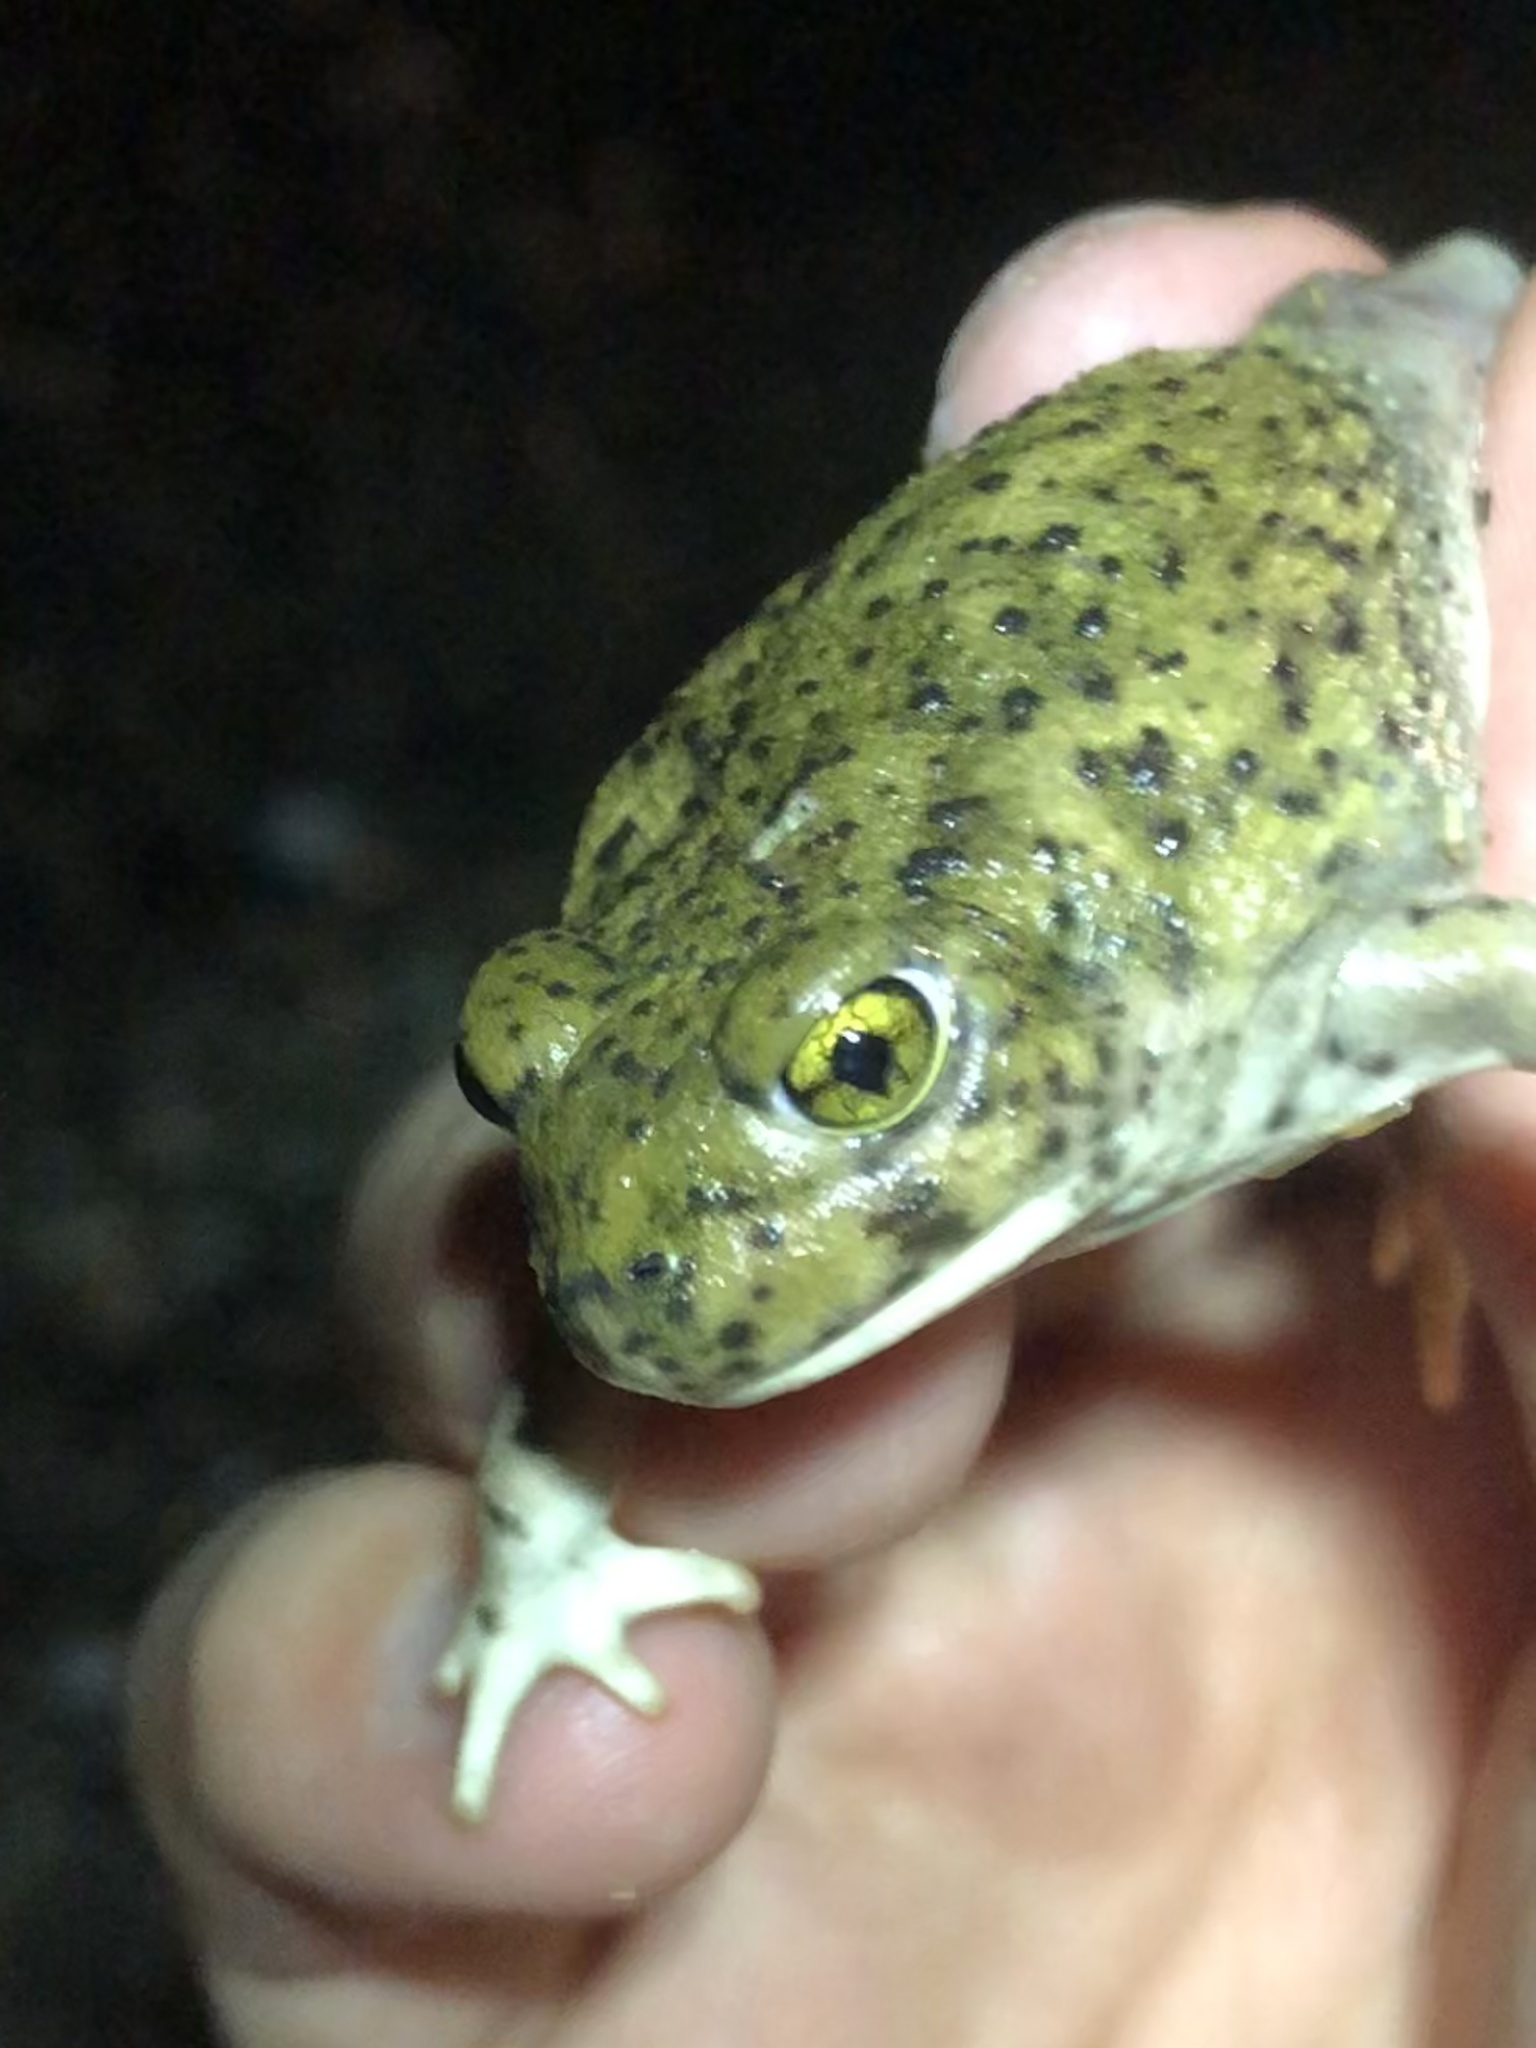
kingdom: Animalia
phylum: Chordata
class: Amphibia
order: Anura
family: Scaphiopodidae
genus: Scaphiopus
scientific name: Scaphiopus couchii
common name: Couch's spadefoot toad
